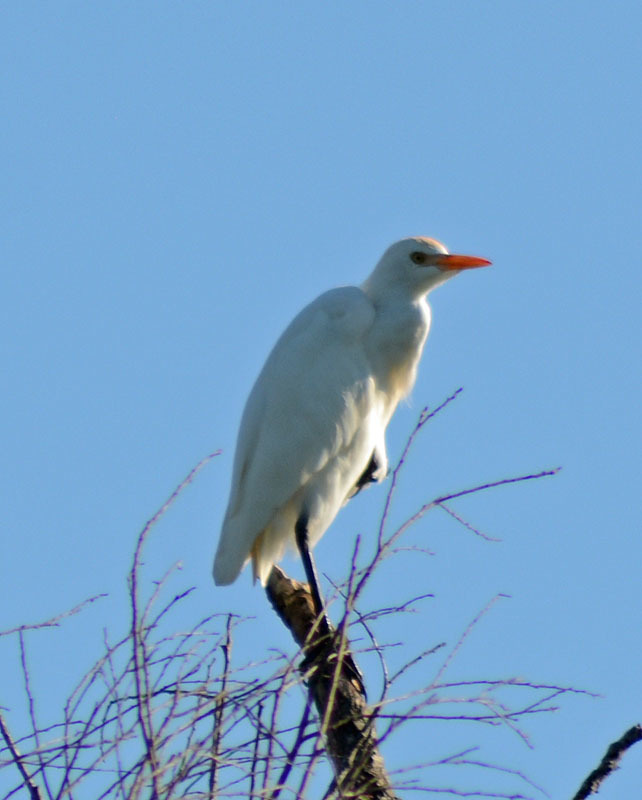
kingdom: Animalia
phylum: Chordata
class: Aves
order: Pelecaniformes
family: Ardeidae
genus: Bubulcus
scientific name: Bubulcus ibis
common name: Cattle egret
